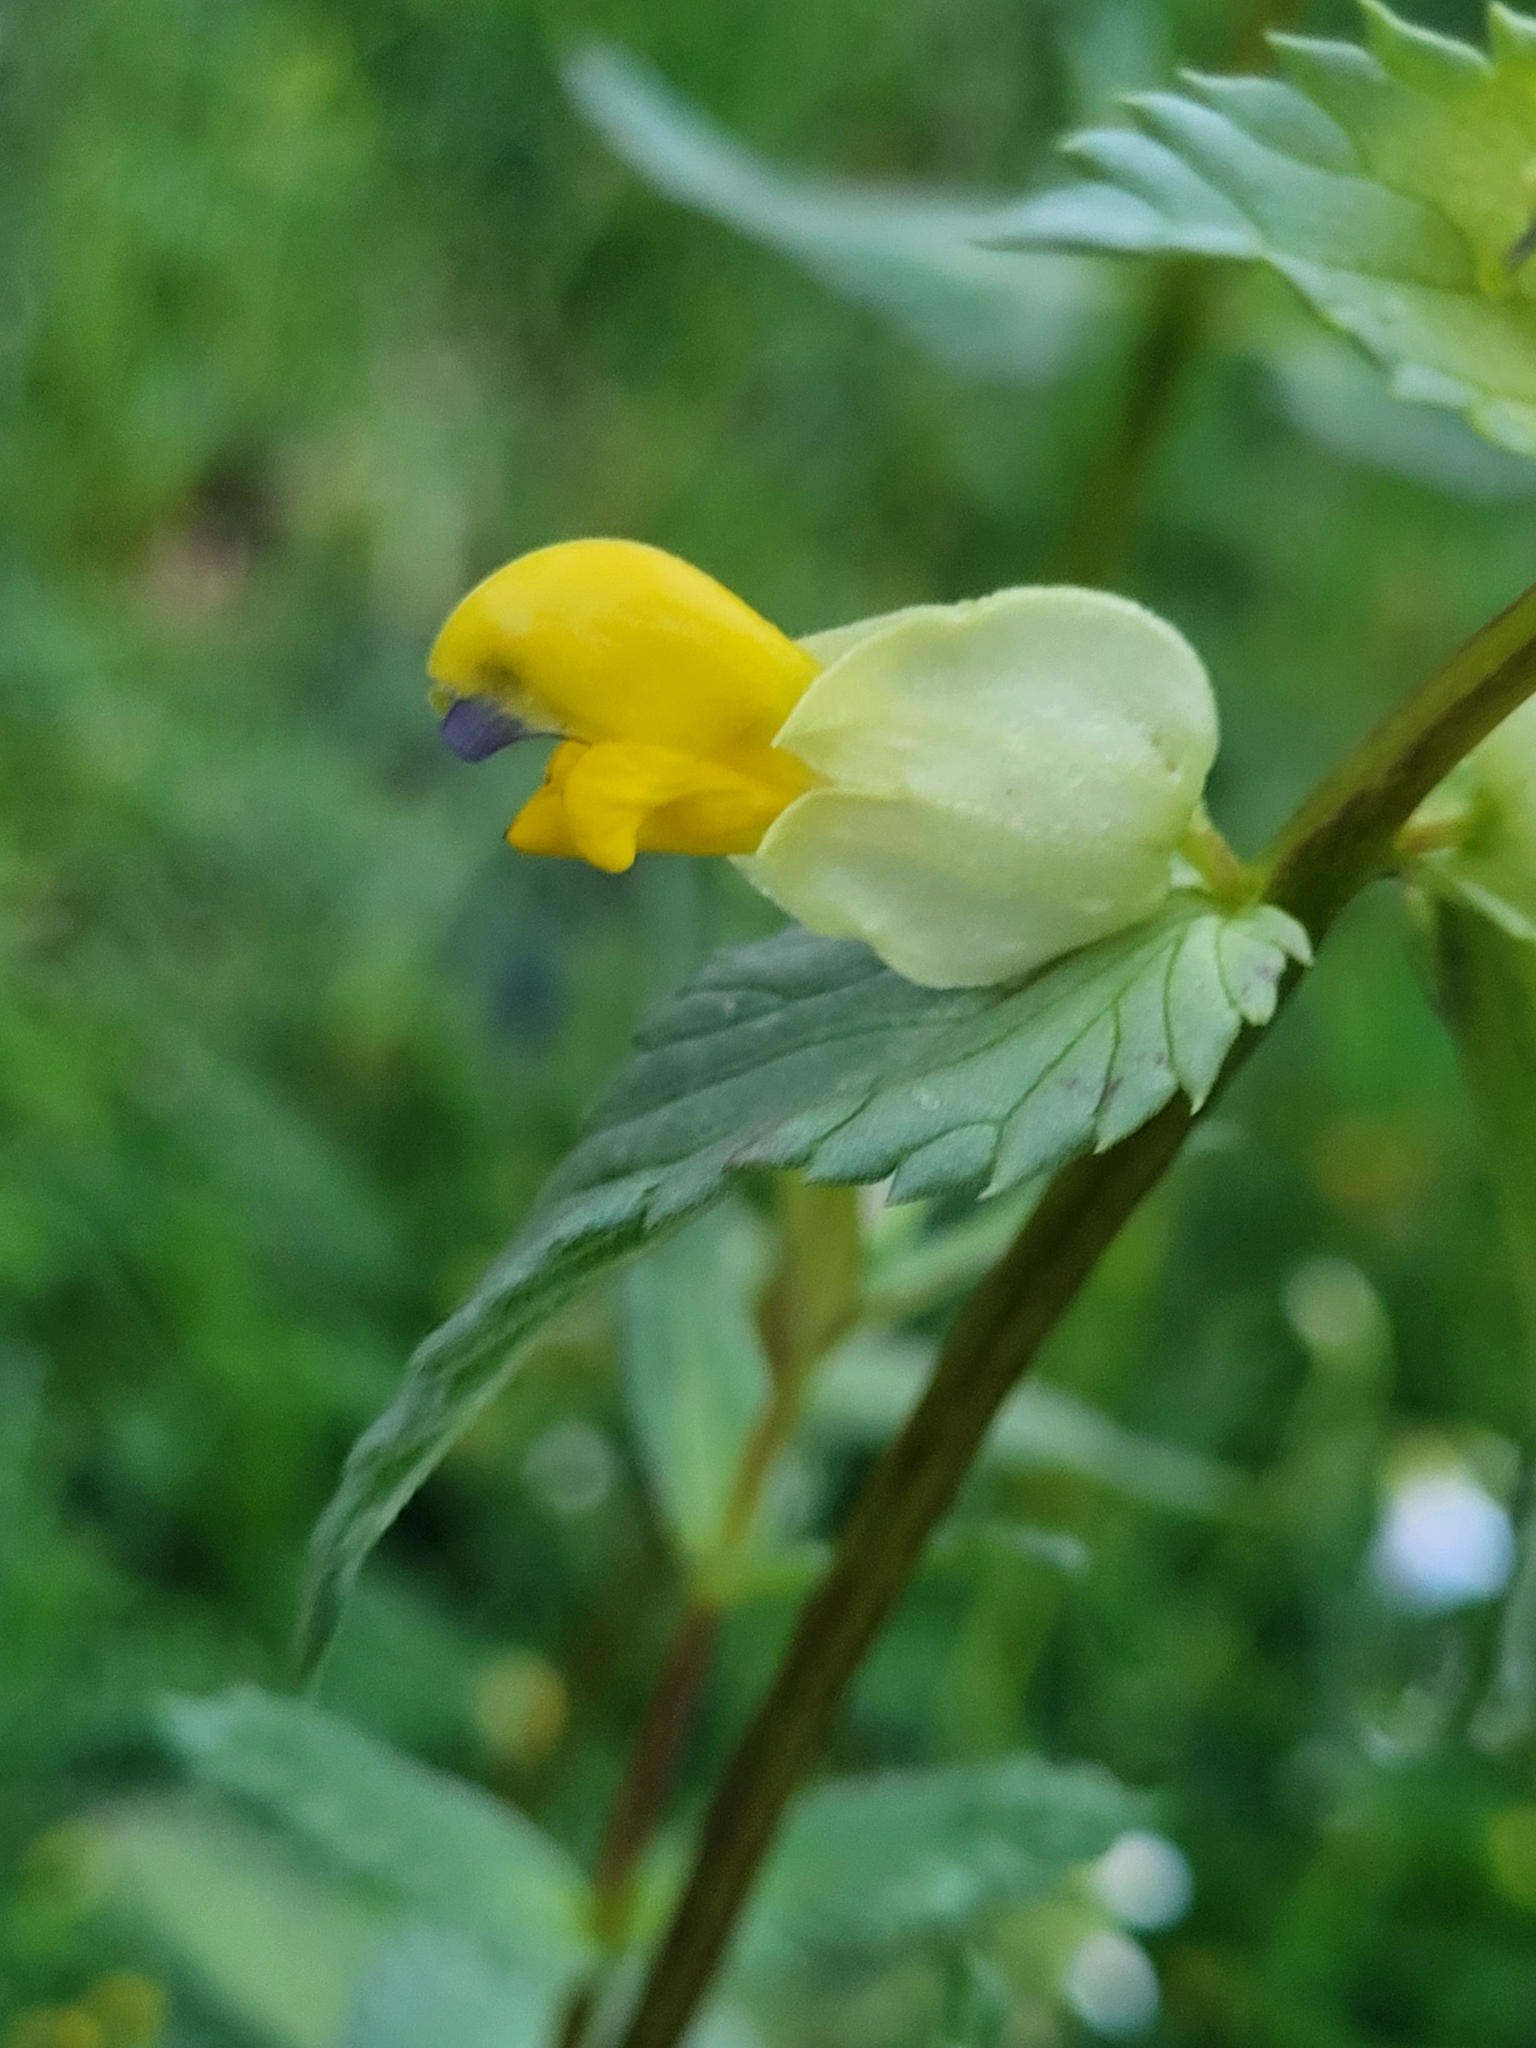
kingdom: Plantae
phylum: Tracheophyta
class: Magnoliopsida
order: Lamiales
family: Orobanchaceae
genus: Rhinanthus
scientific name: Rhinanthus serotinus
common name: Late-flowering yellow rattle
